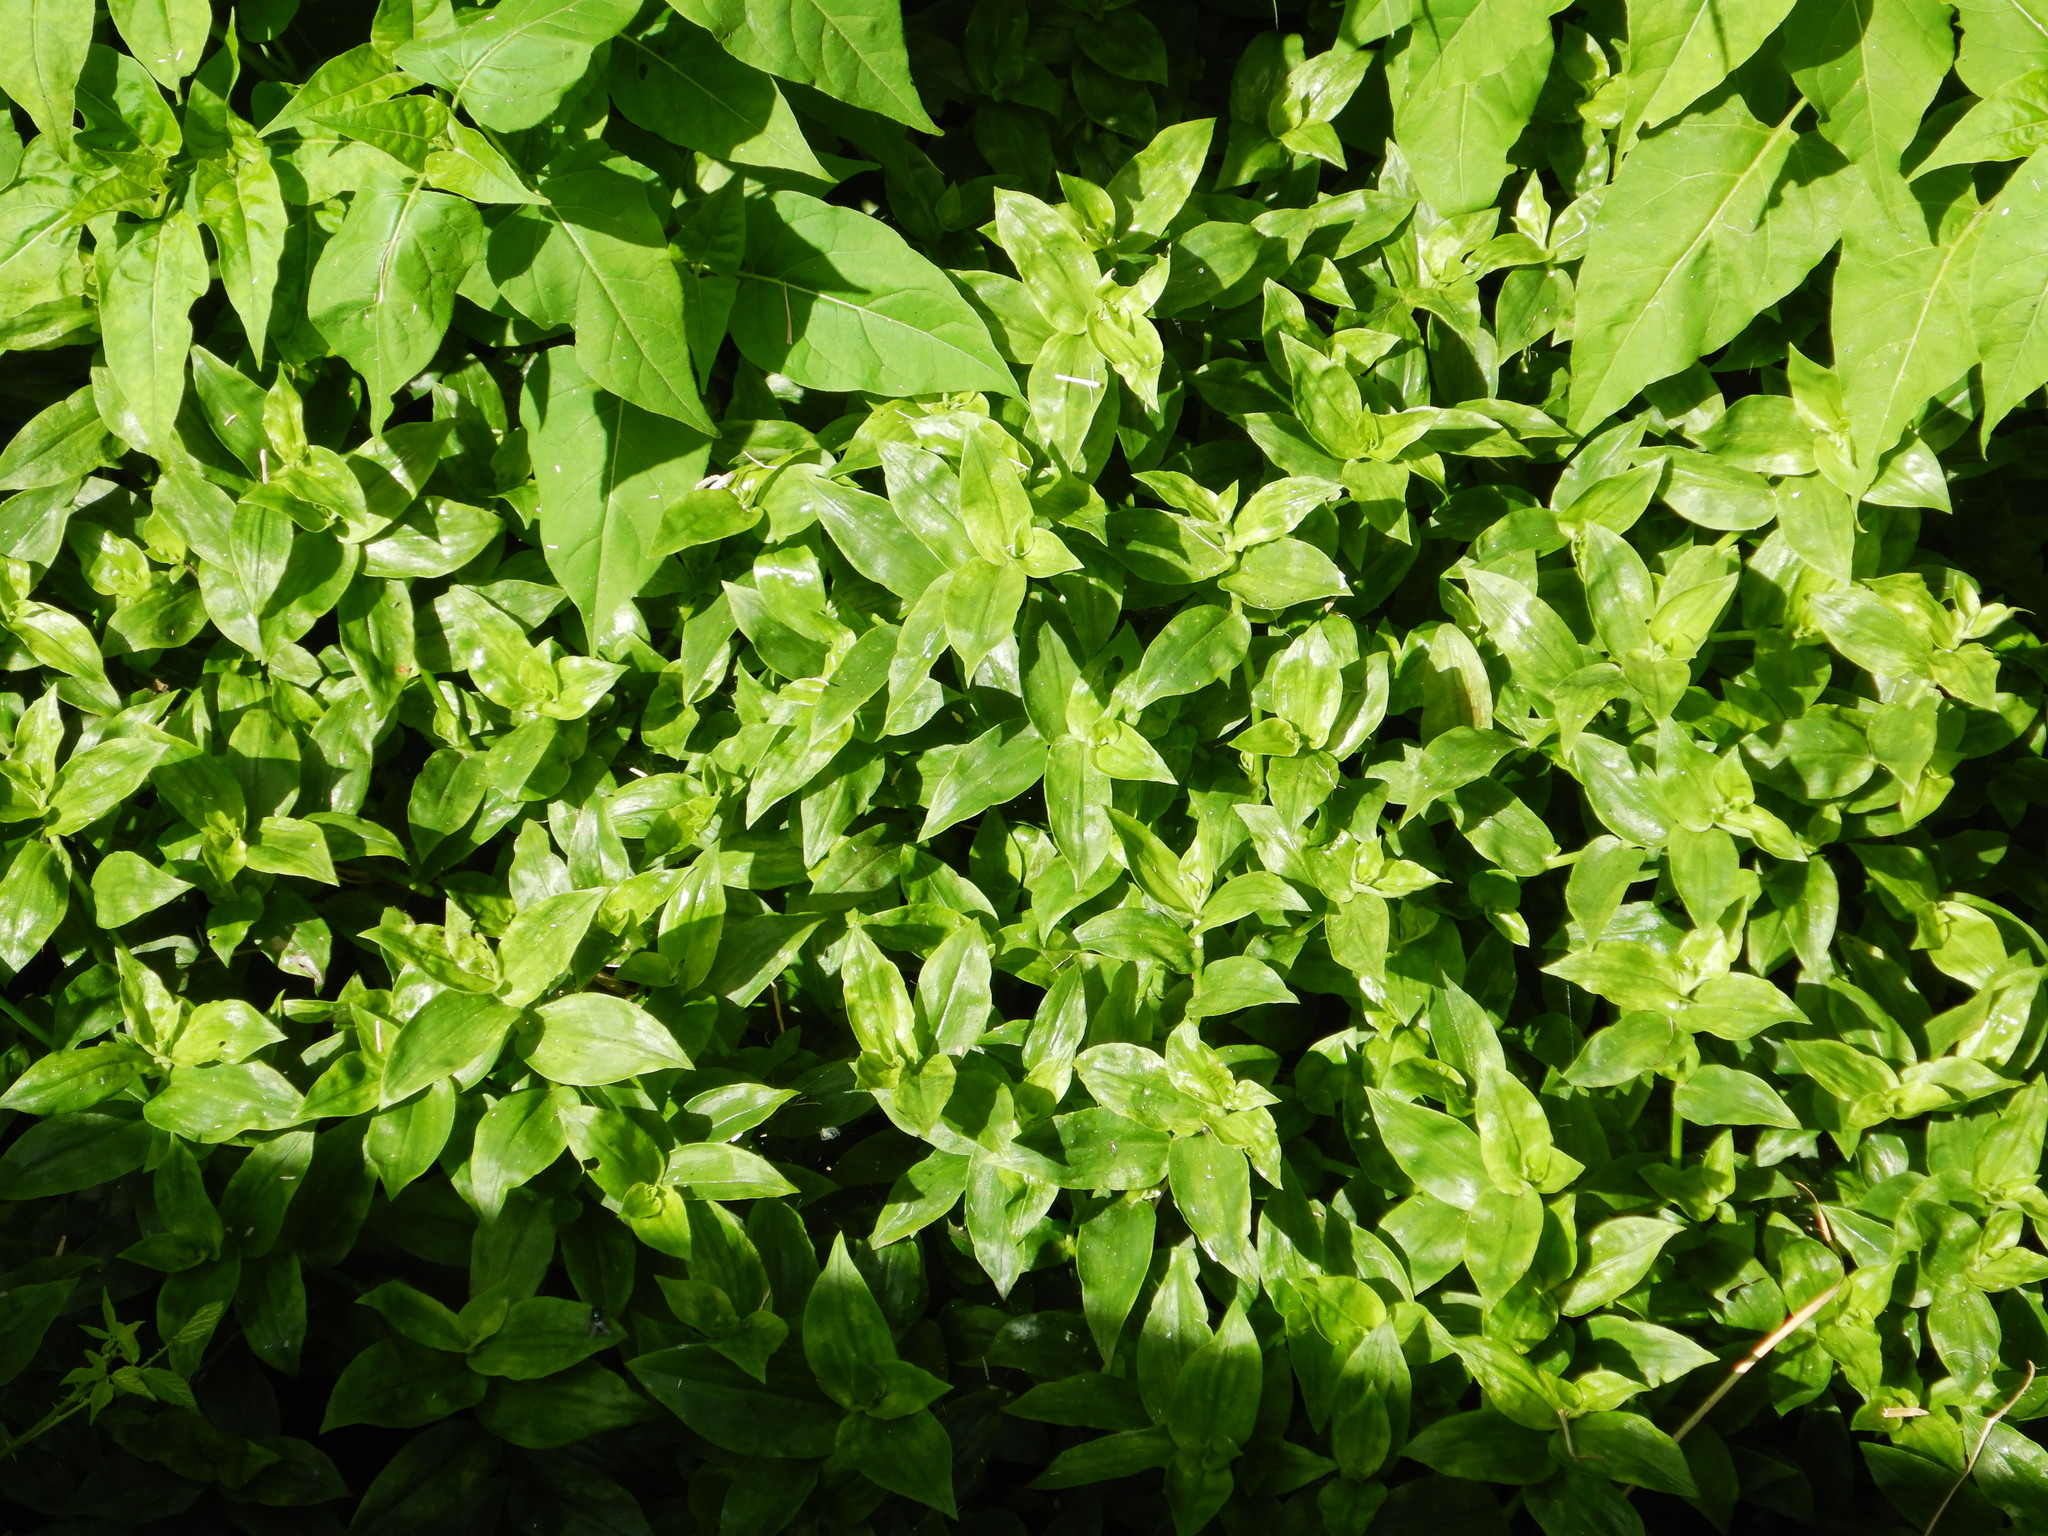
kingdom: Plantae
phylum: Tracheophyta
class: Liliopsida
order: Commelinales
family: Commelinaceae
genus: Tradescantia
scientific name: Tradescantia fluminensis
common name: Wandering-jew
